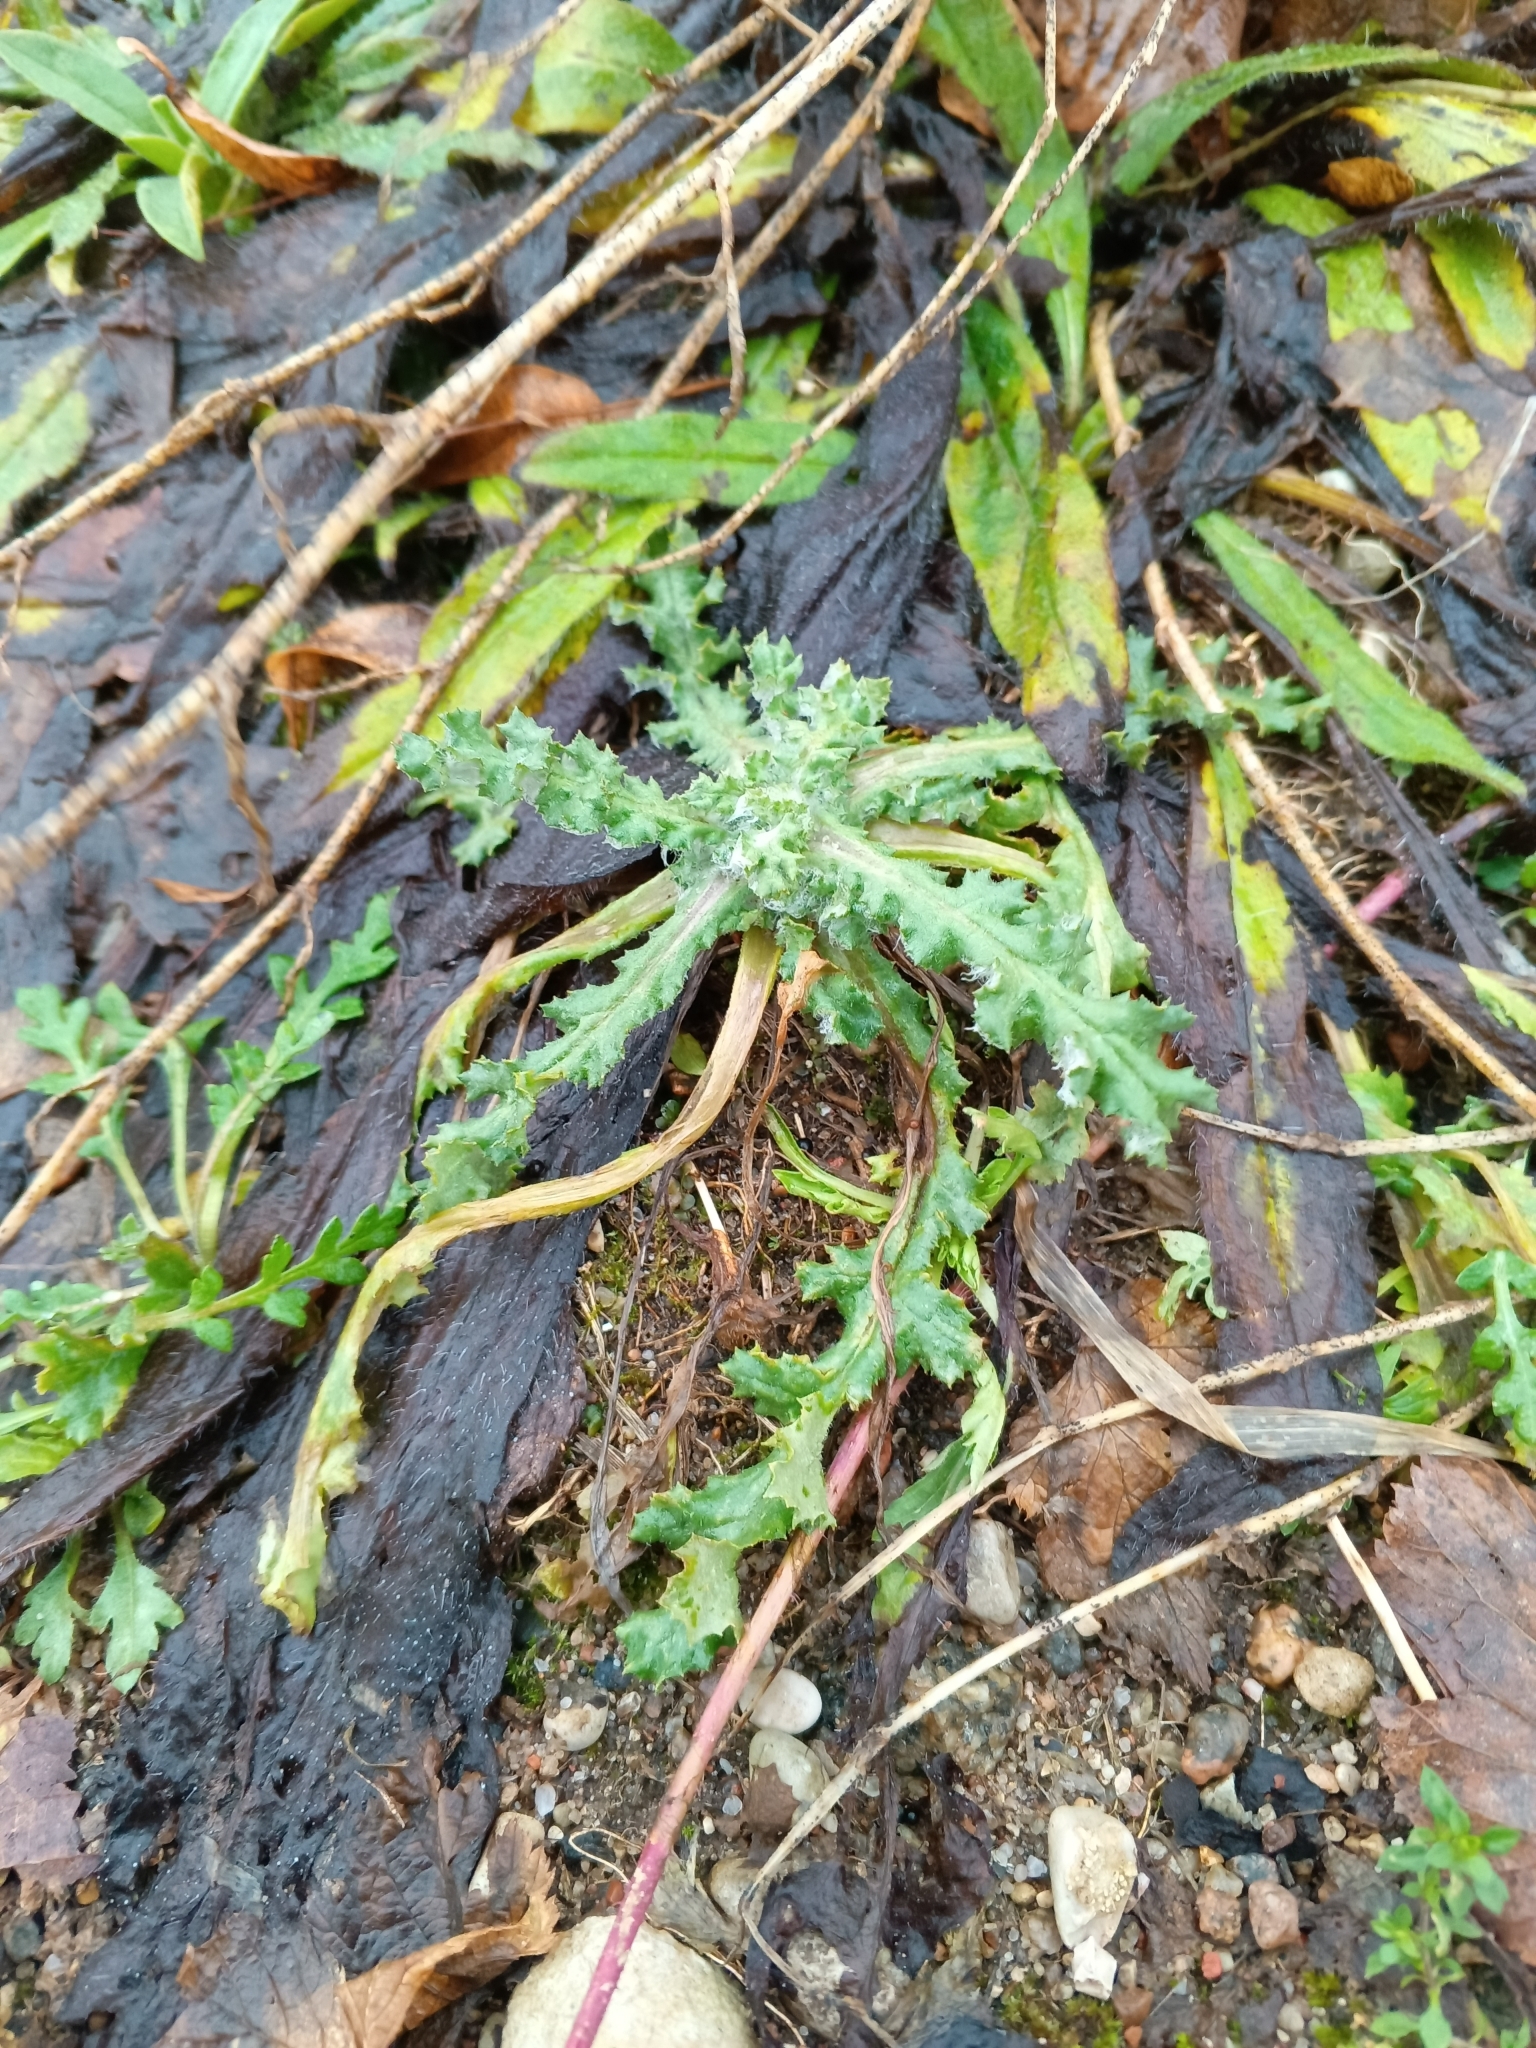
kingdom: Plantae
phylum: Tracheophyta
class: Magnoliopsida
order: Asterales
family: Asteraceae
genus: Senecio
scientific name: Senecio vernalis
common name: Eastern groundsel
